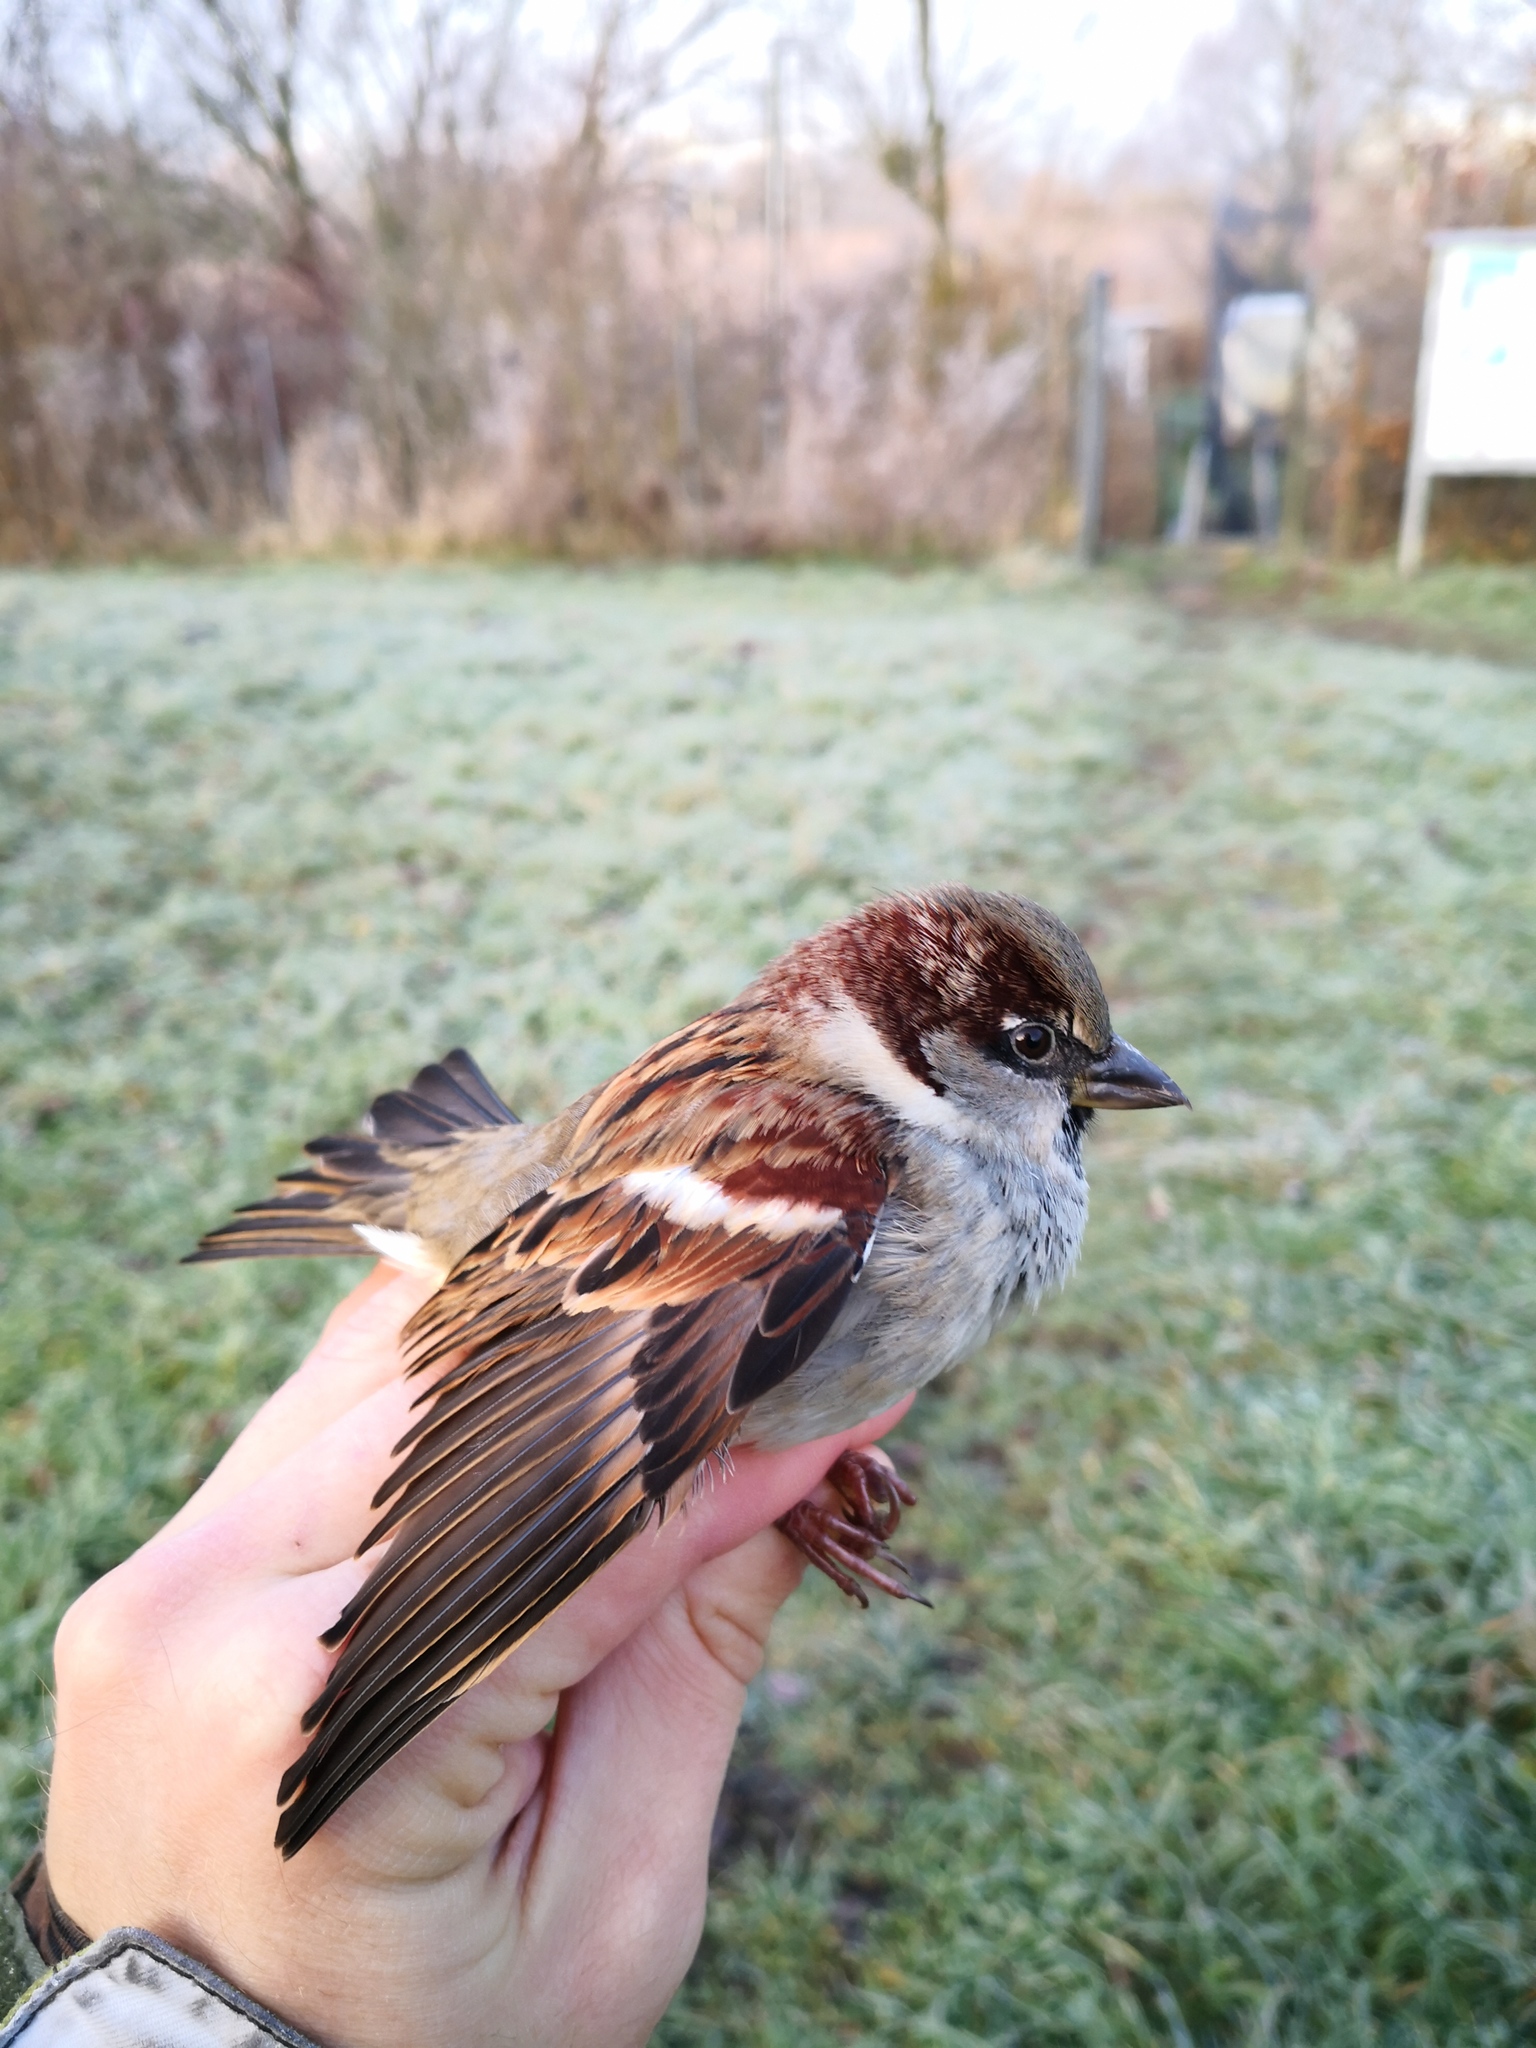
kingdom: Animalia
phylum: Chordata
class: Aves
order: Passeriformes
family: Passeridae
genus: Passer
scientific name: Passer domesticus
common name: House sparrow
